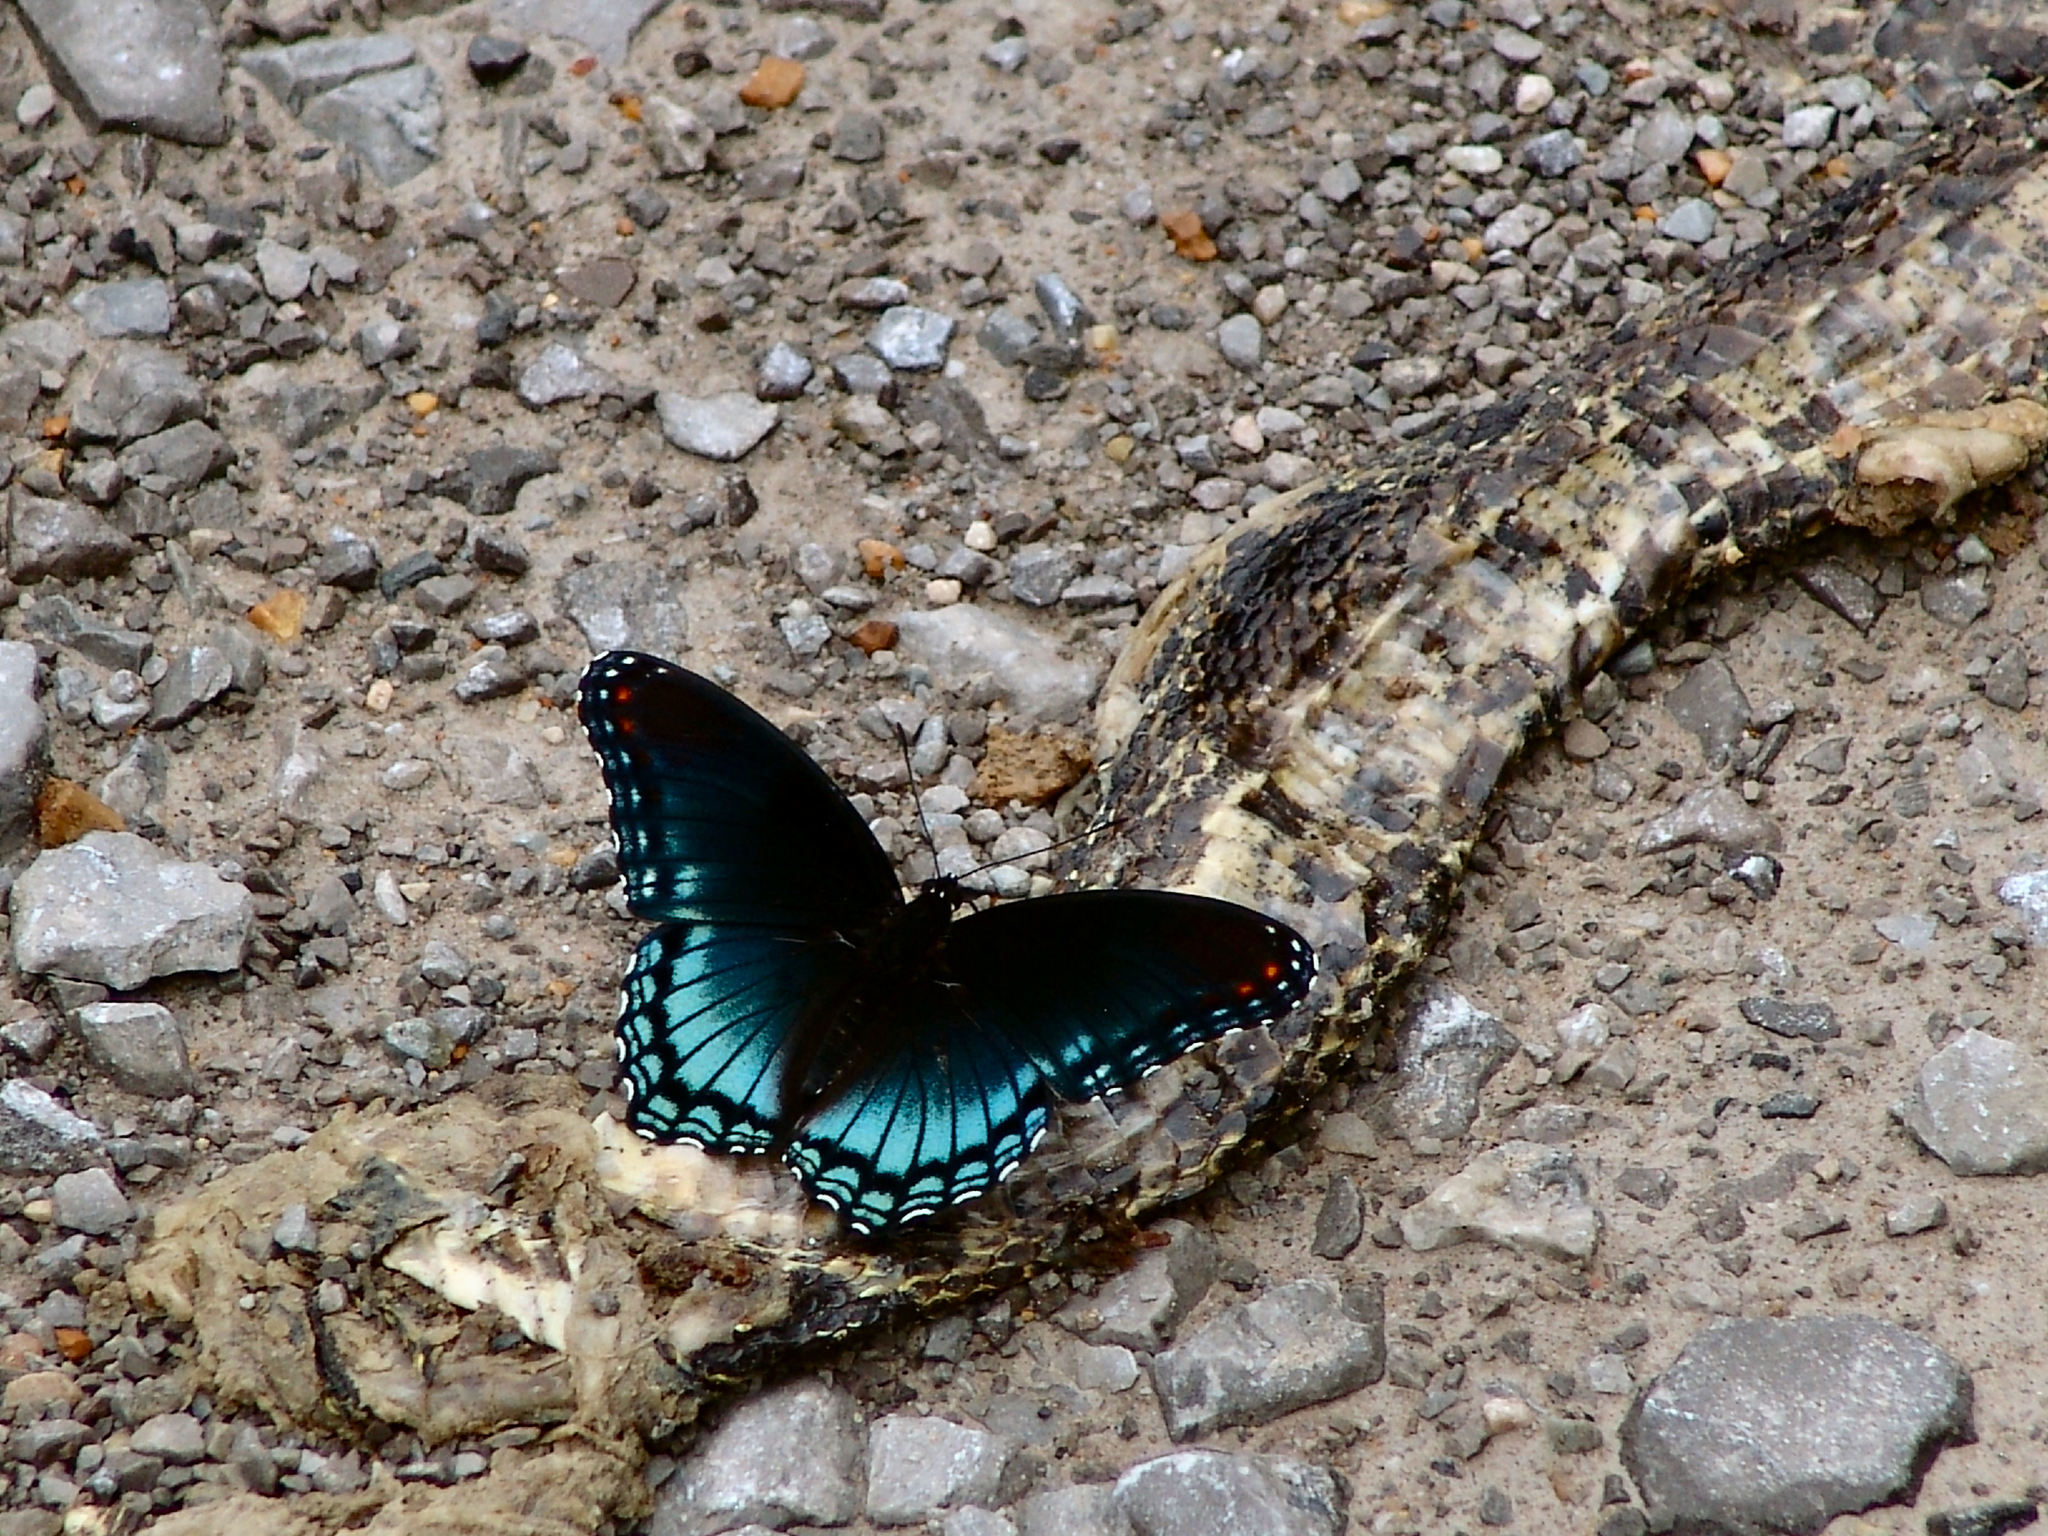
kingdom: Animalia
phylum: Arthropoda
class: Insecta
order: Lepidoptera
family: Nymphalidae
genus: Limenitis
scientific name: Limenitis astyanax
